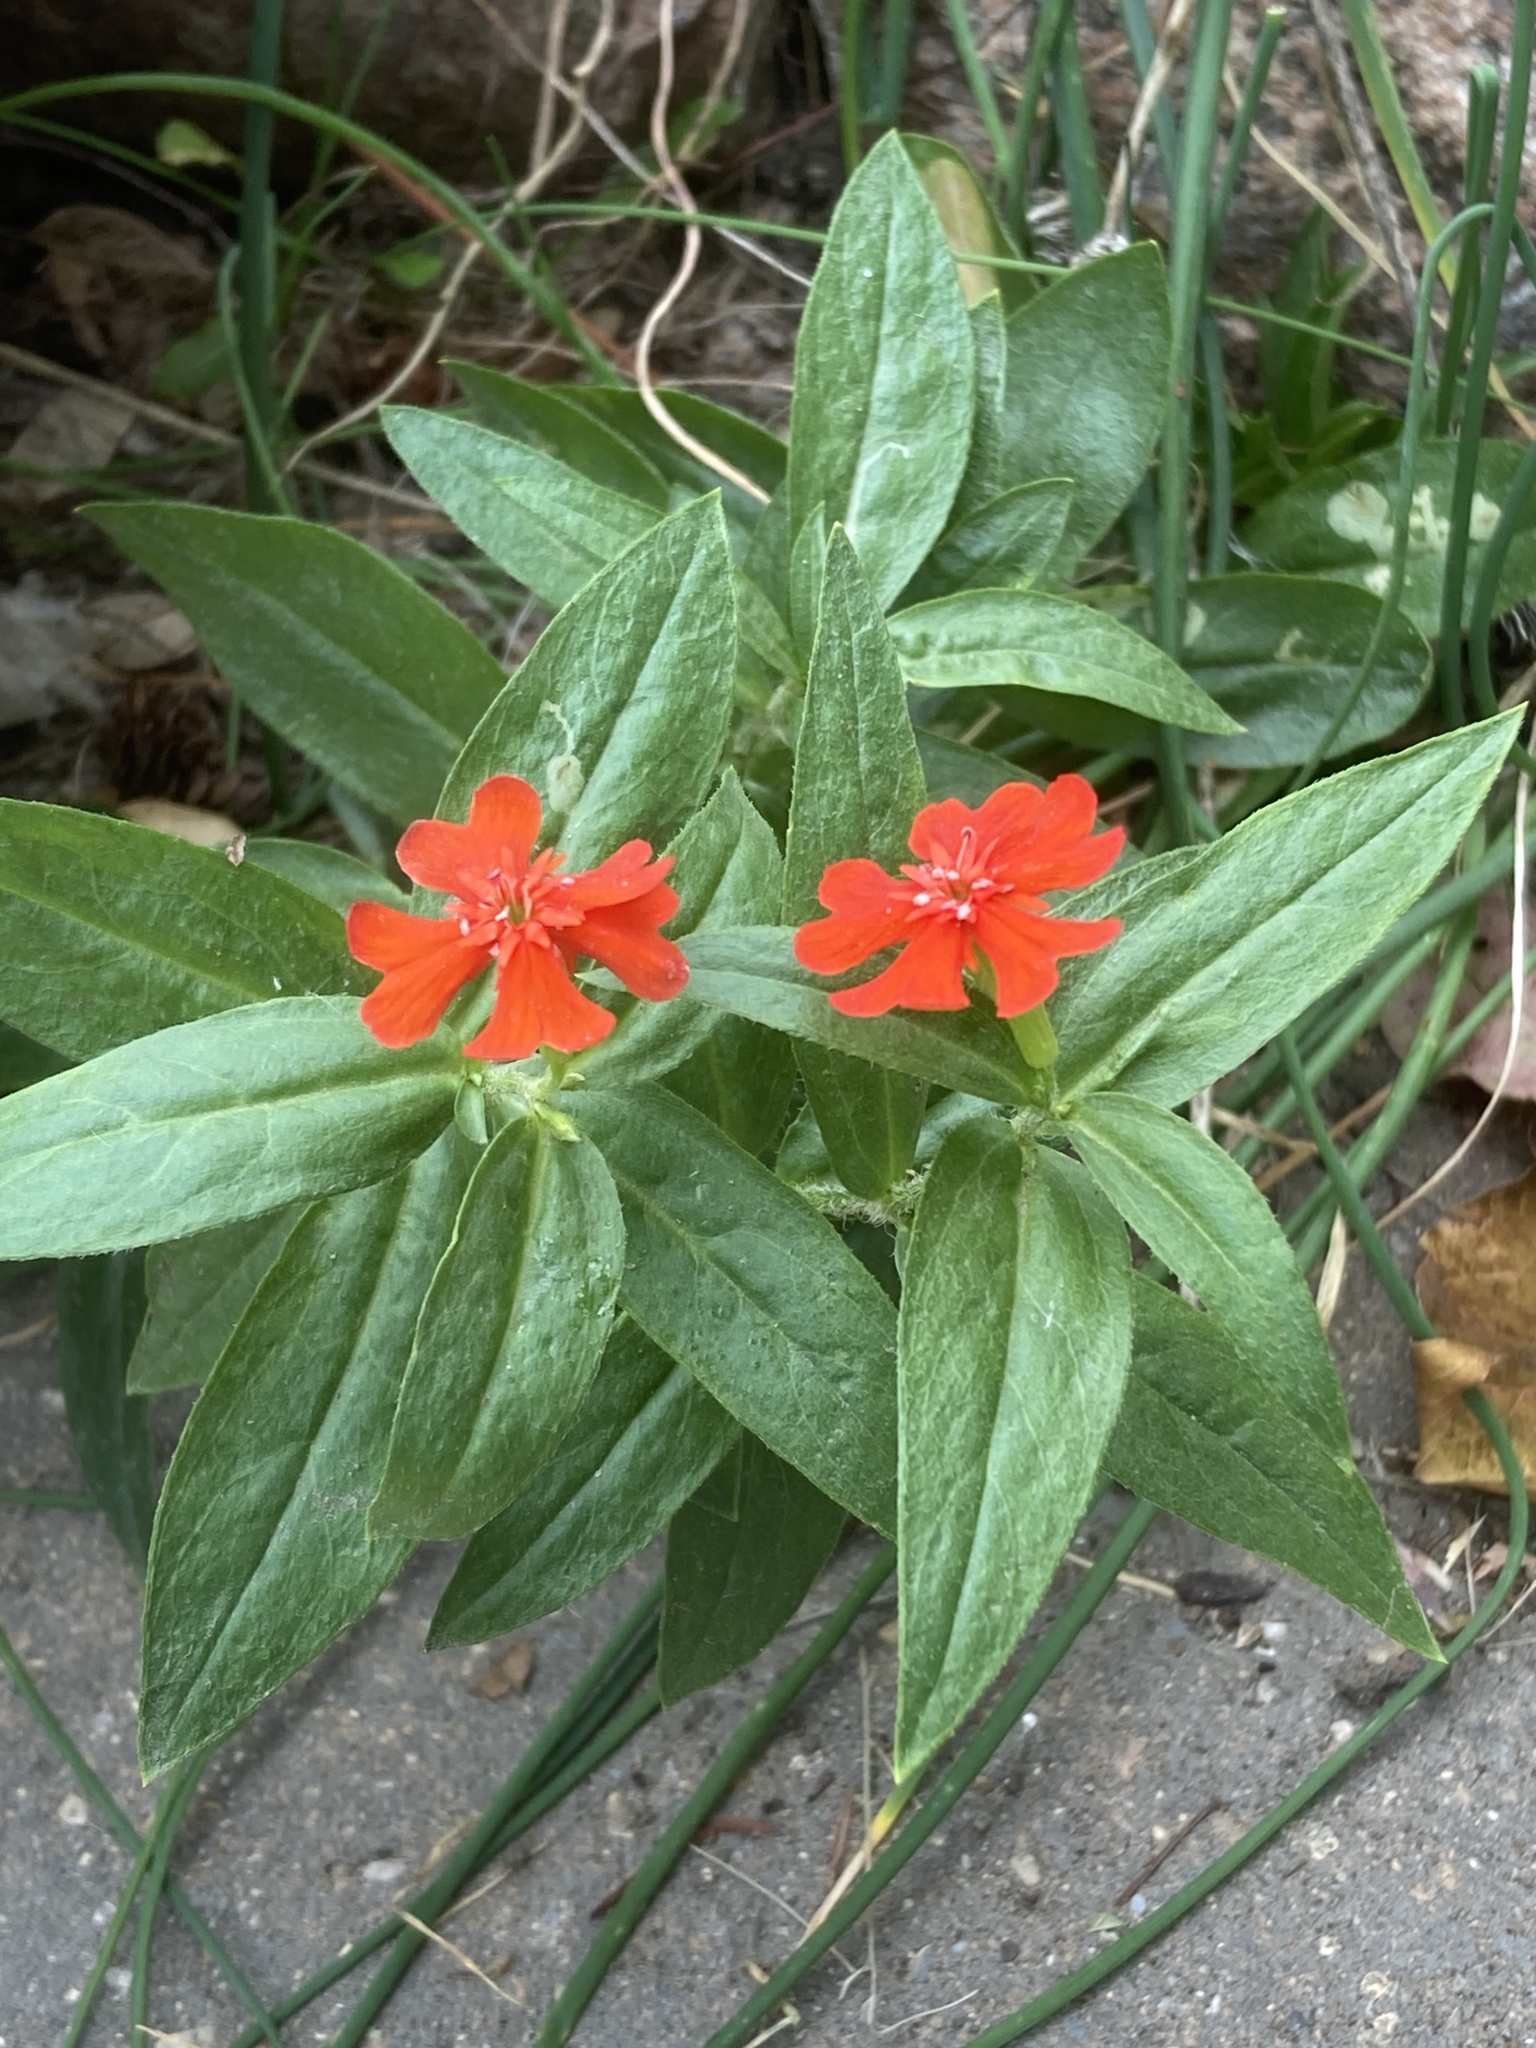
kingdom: Plantae
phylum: Tracheophyta
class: Magnoliopsida
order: Caryophyllales
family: Caryophyllaceae
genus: Silene
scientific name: Silene chalcedonica
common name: Maltese-cross
